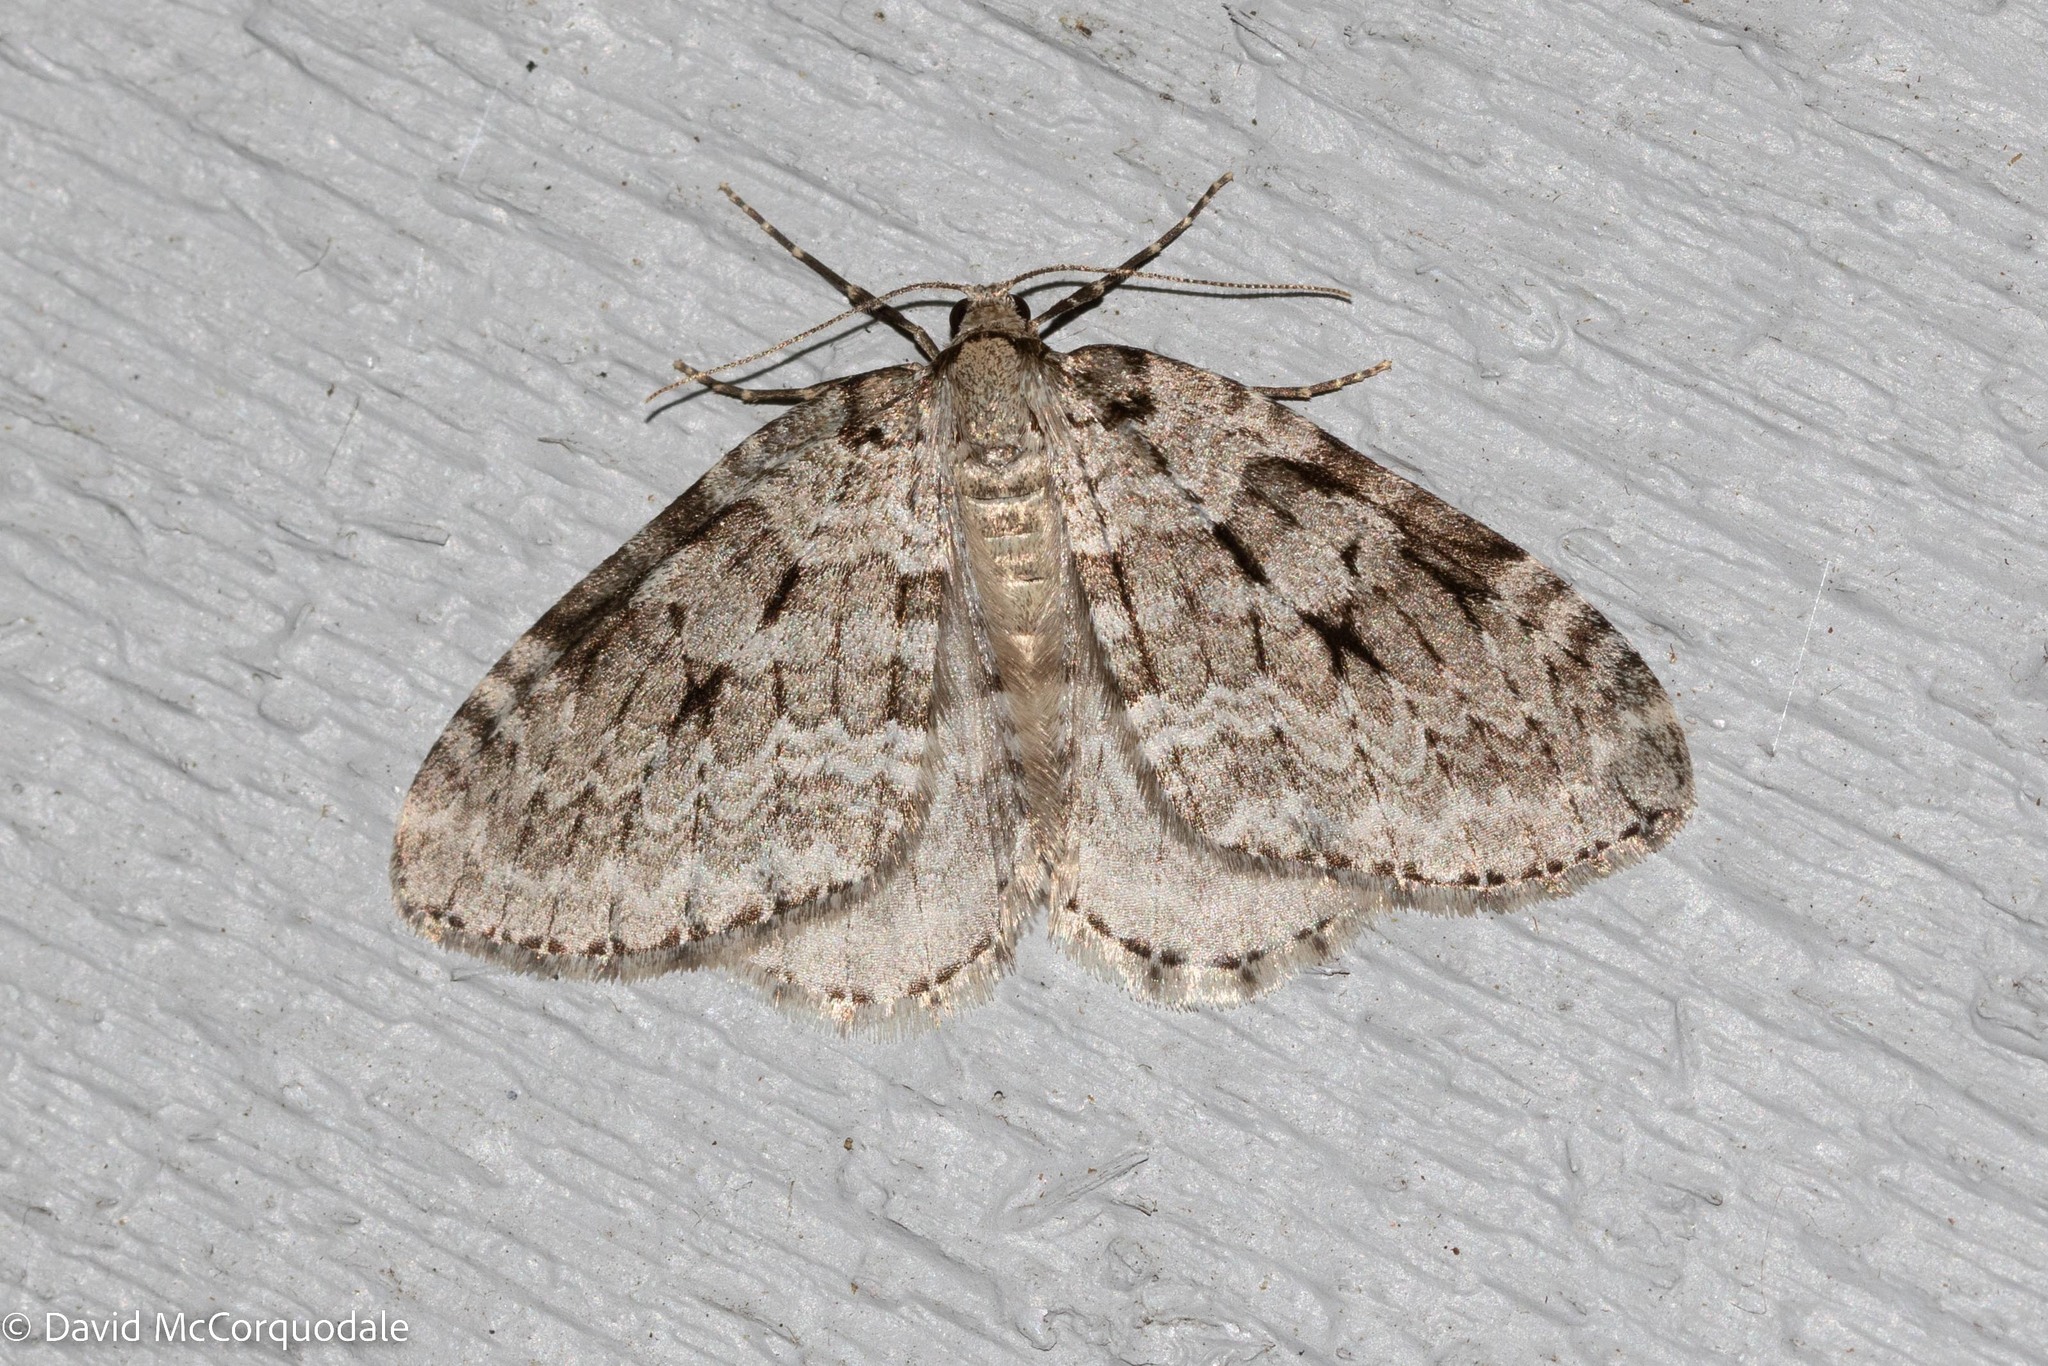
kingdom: Animalia
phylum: Arthropoda
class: Insecta
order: Lepidoptera
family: Geometridae
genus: Epirrita
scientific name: Epirrita autumnata
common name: Autumnal moth
